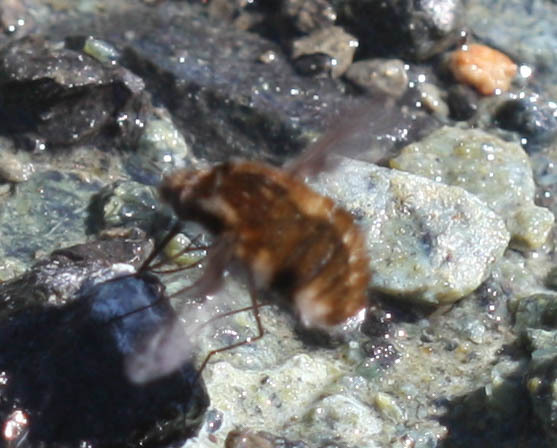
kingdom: Animalia
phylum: Arthropoda
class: Insecta
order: Diptera
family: Bombyliidae
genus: Bombylius
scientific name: Bombylius
